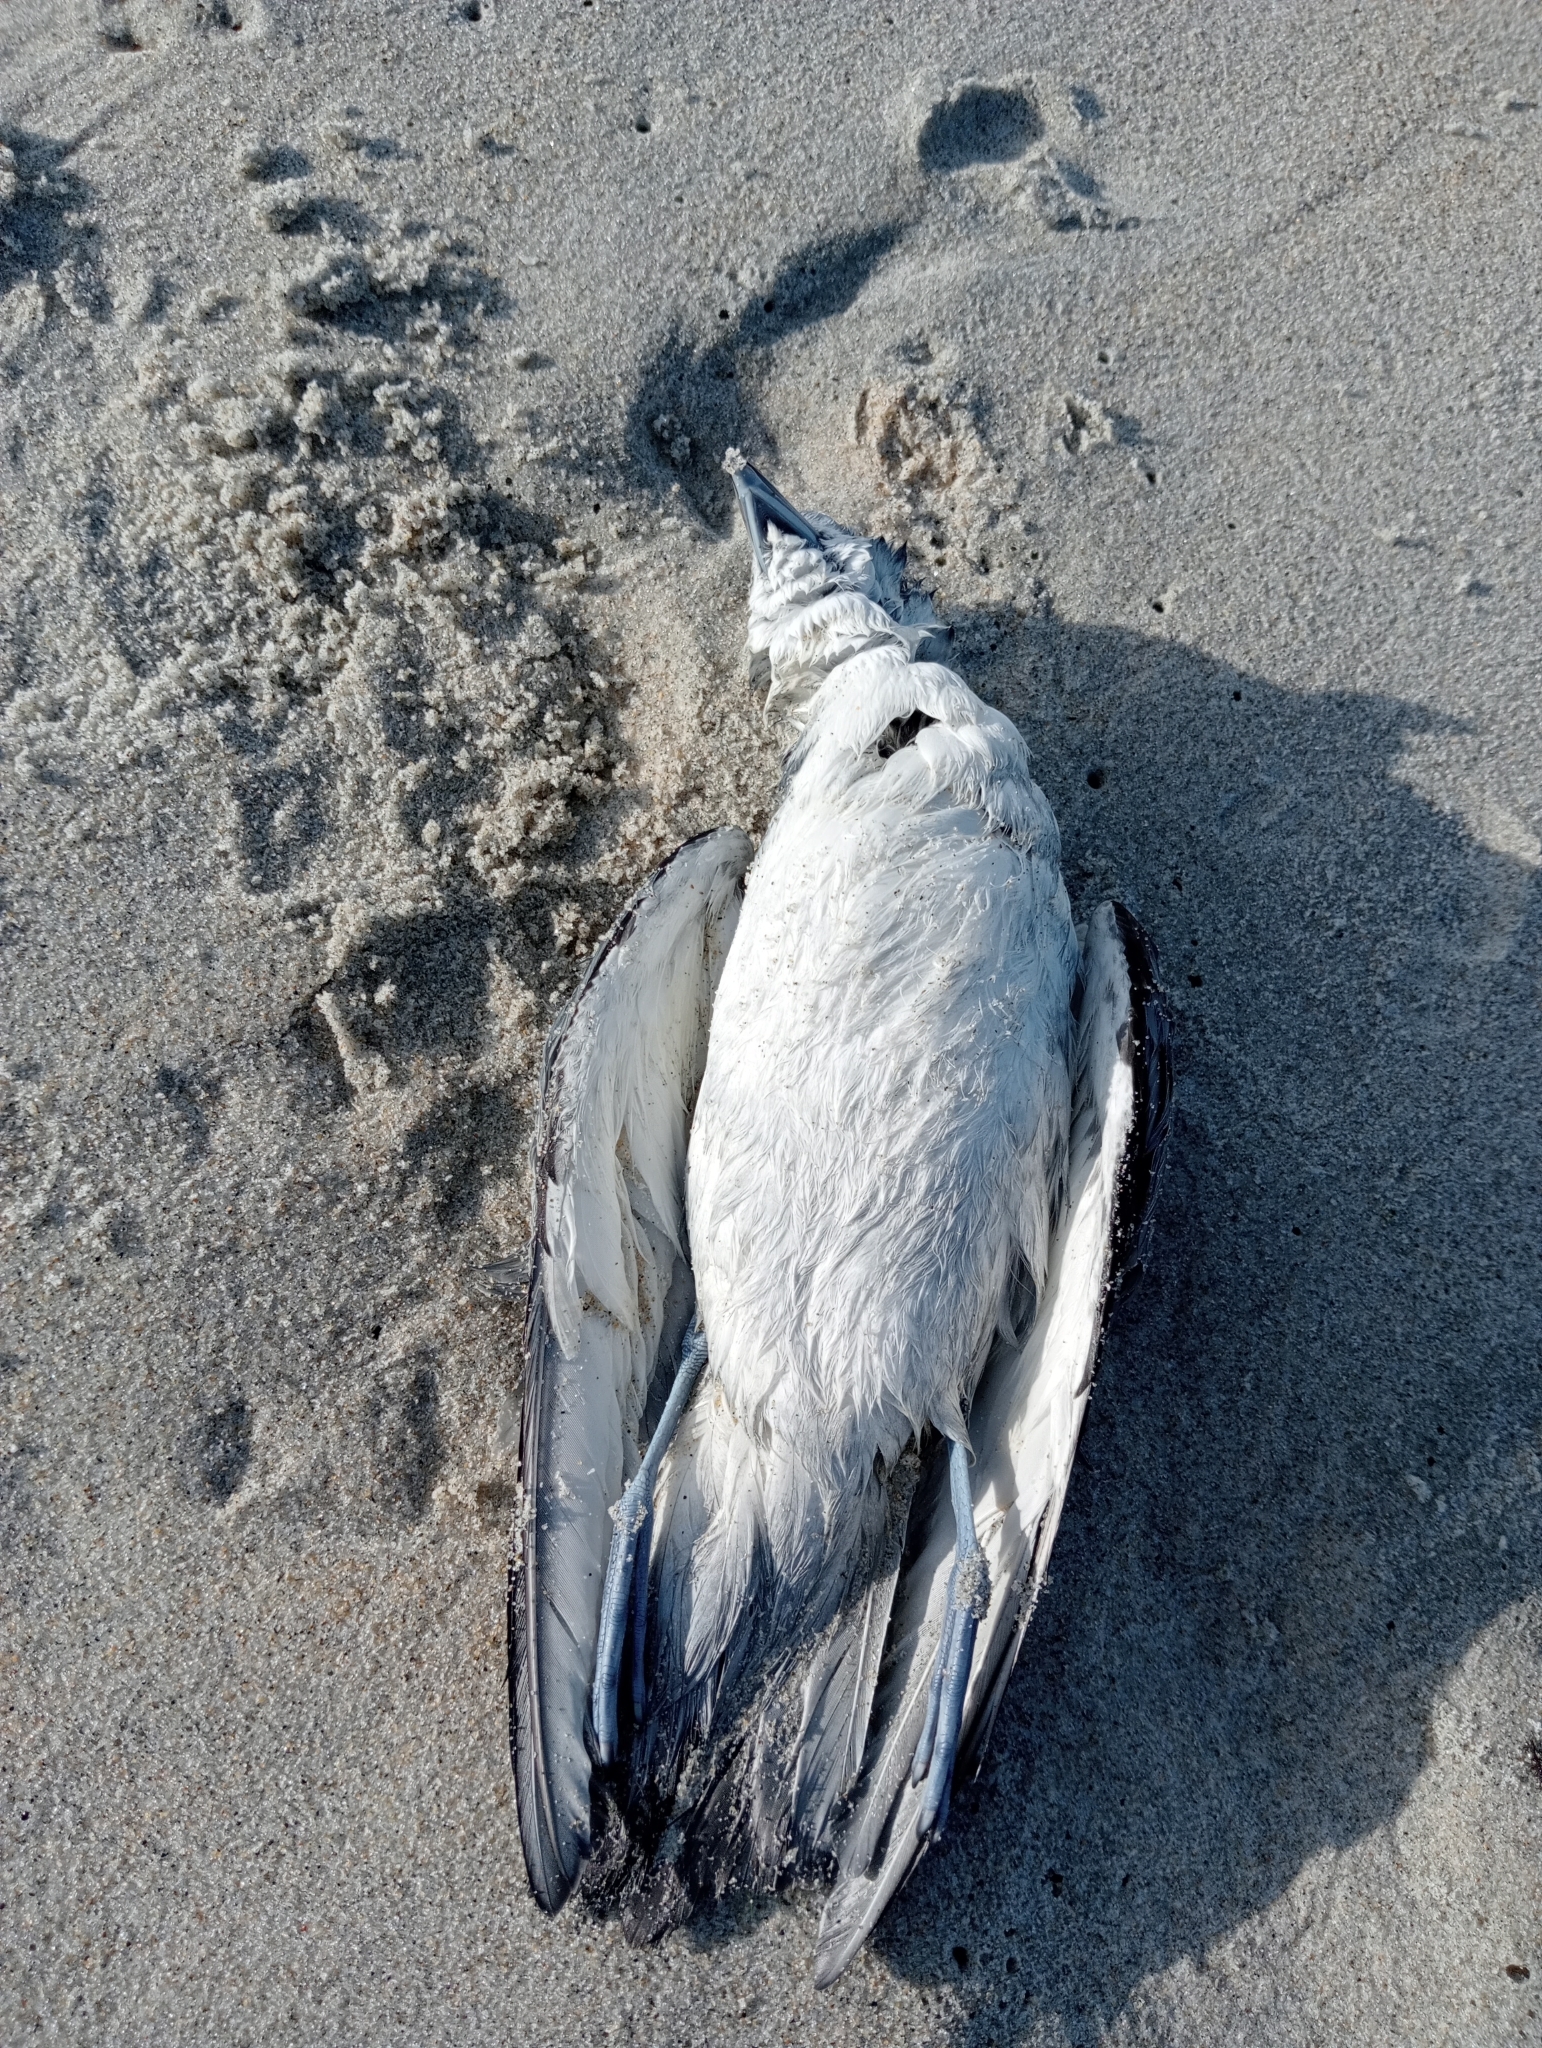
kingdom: Animalia
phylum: Chordata
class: Aves
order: Procellariiformes
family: Procellariidae
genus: Pachyptila
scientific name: Pachyptila turtur
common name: Fairy prion
